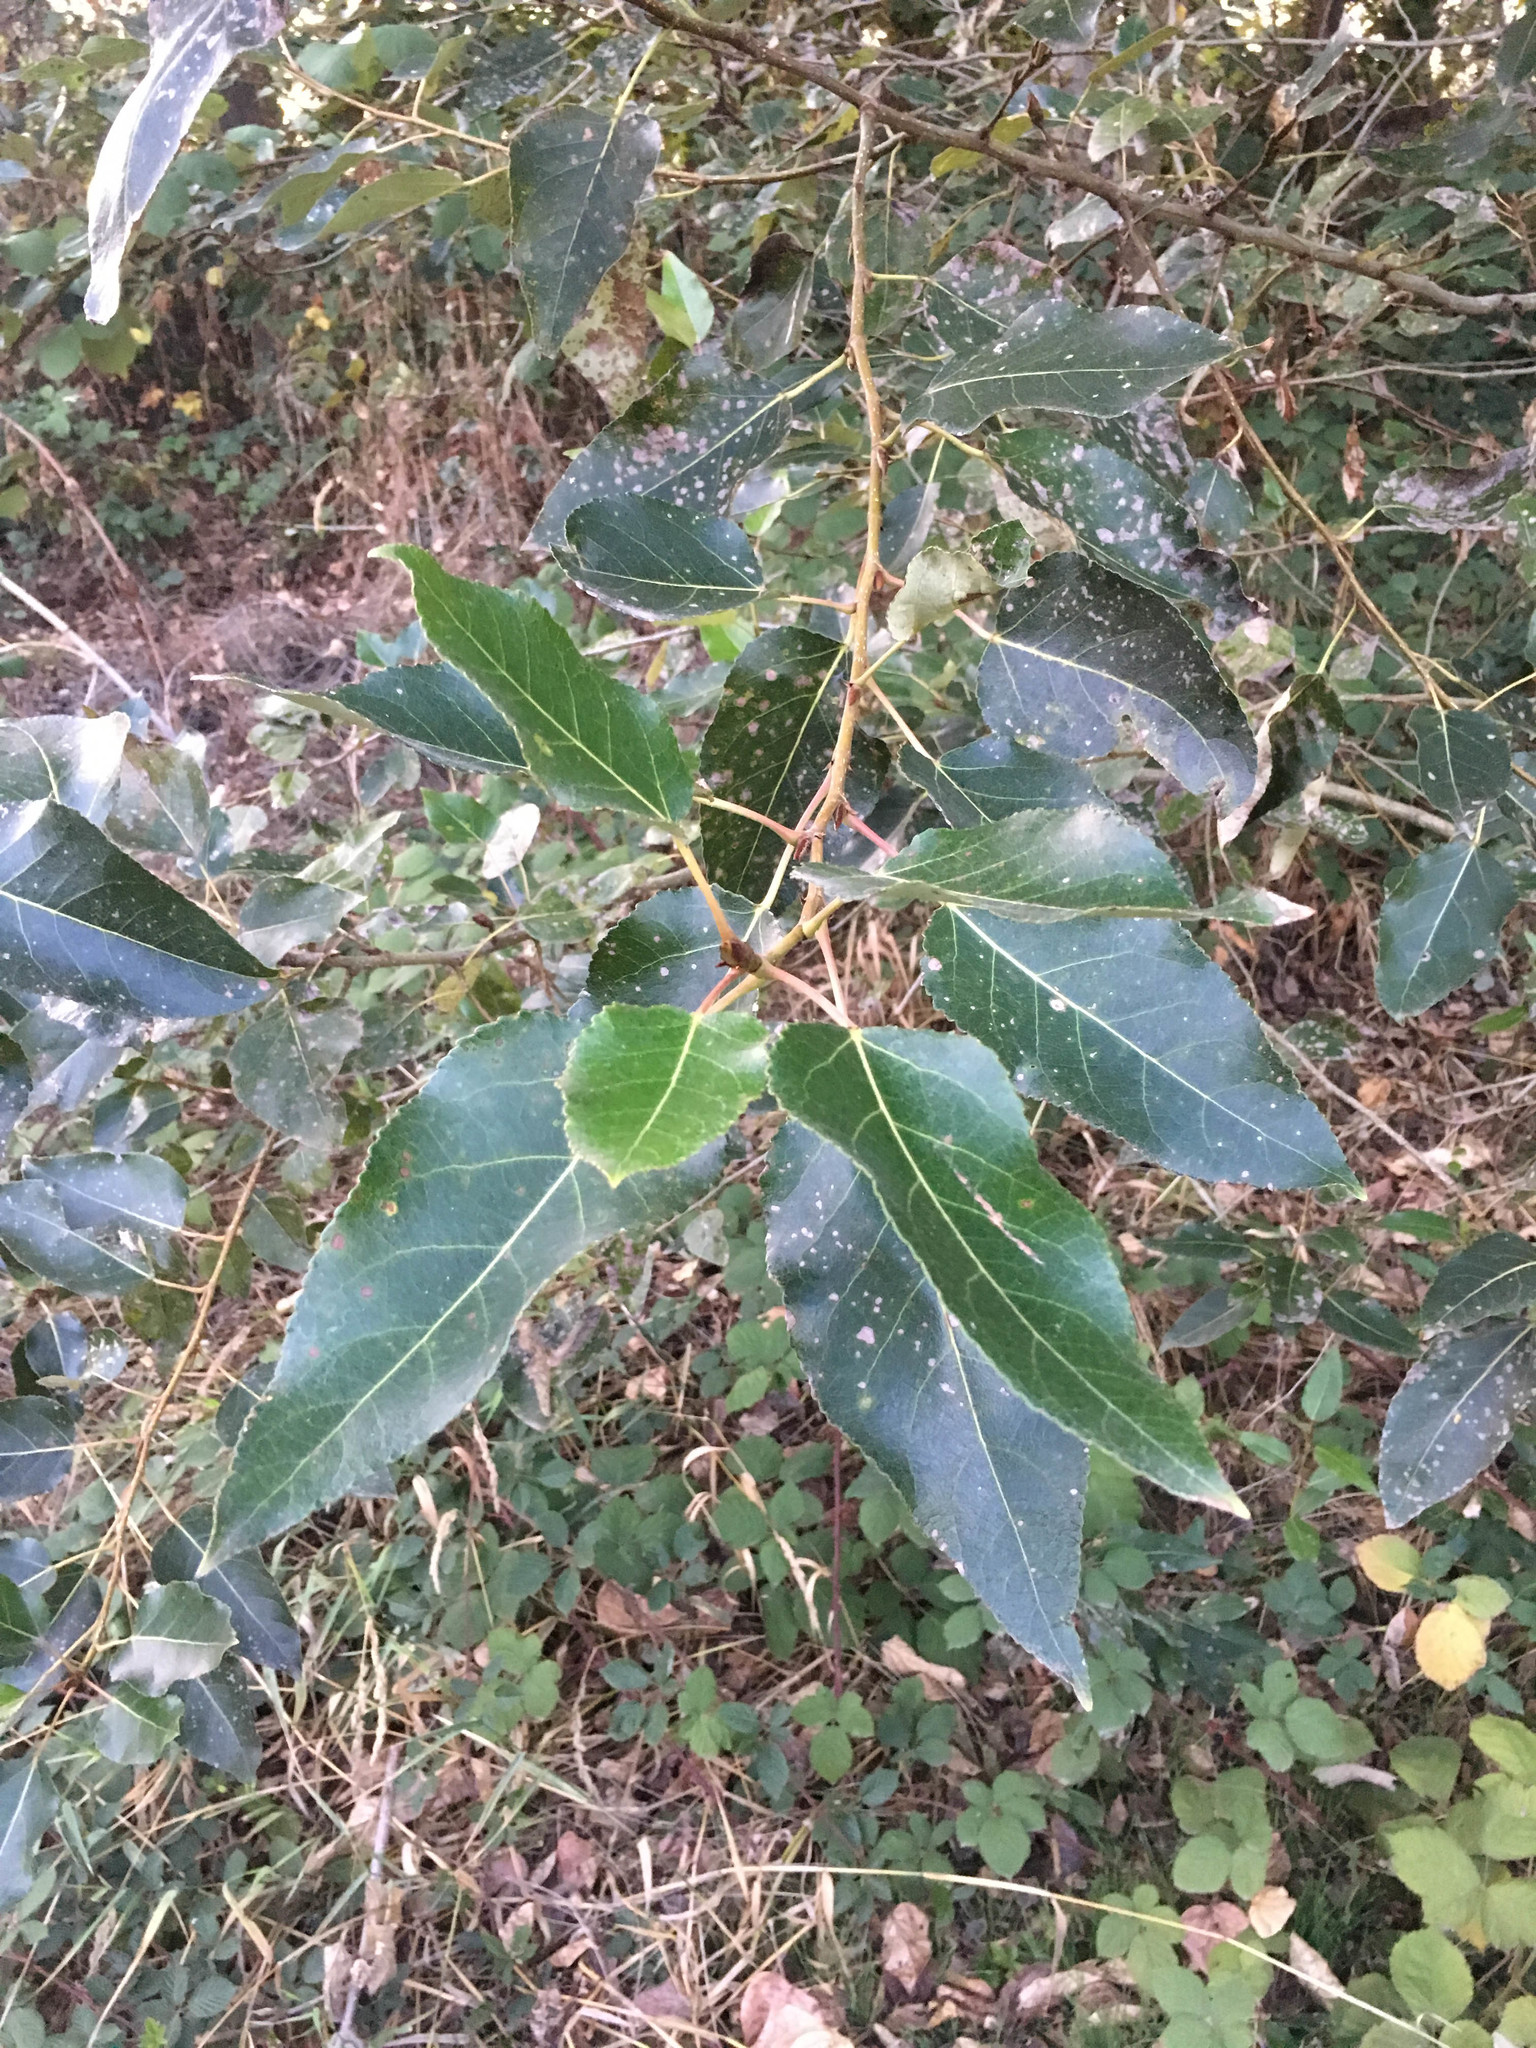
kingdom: Plantae
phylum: Tracheophyta
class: Magnoliopsida
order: Malpighiales
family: Salicaceae
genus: Populus
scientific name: Populus trichocarpa
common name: Black cottonwood
